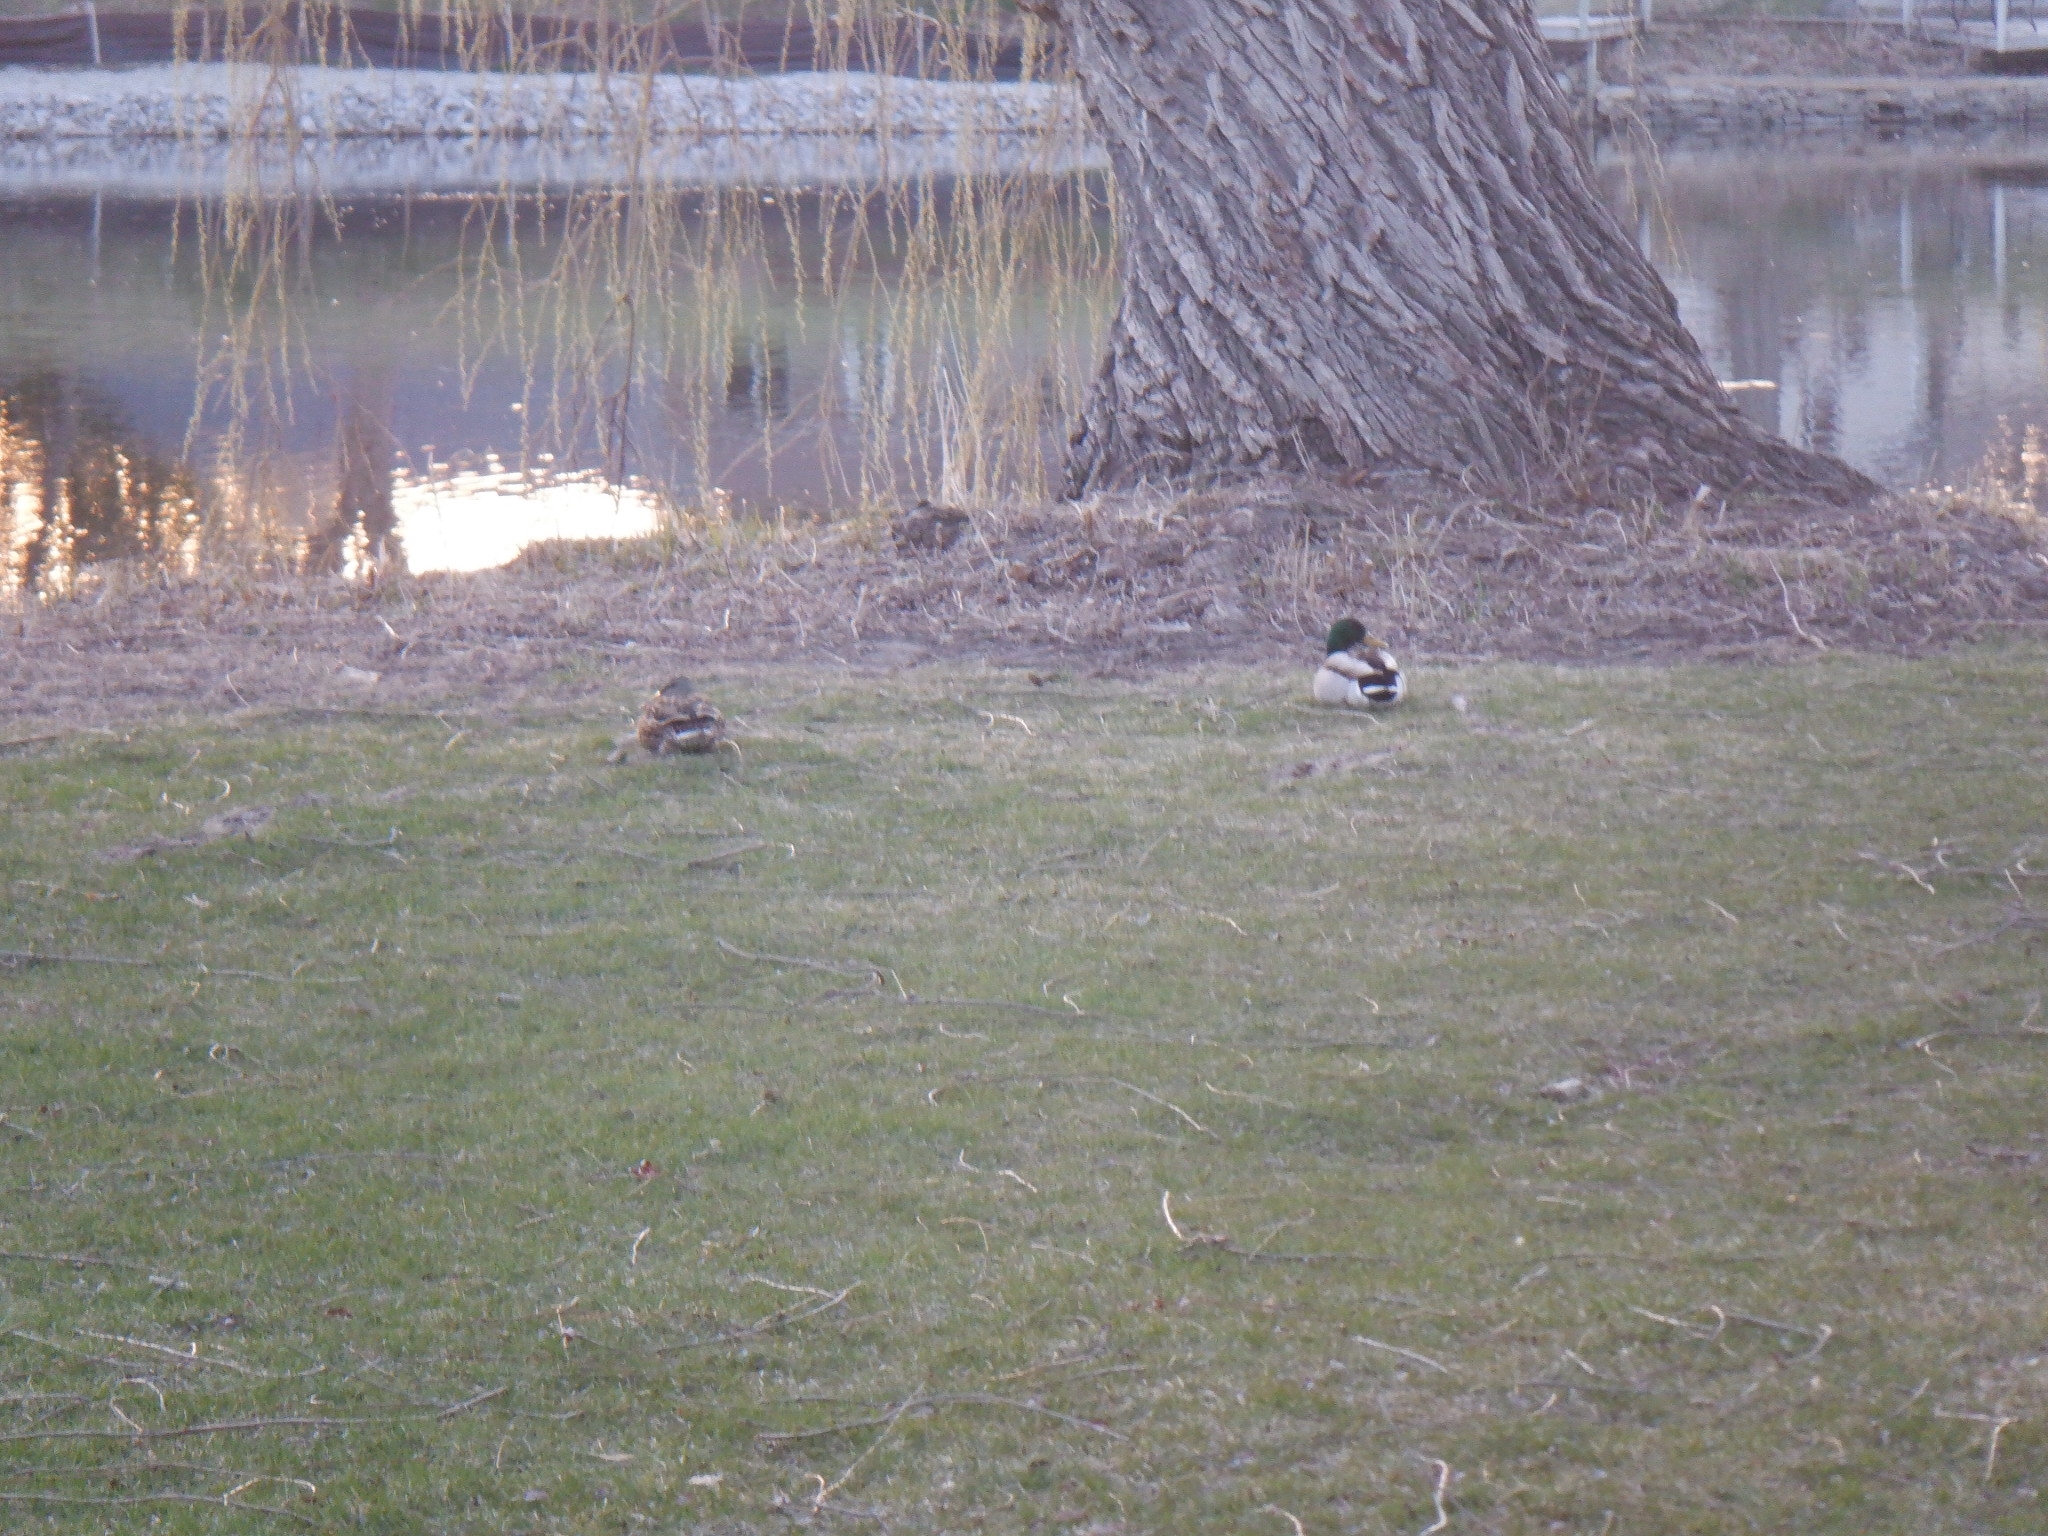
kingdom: Animalia
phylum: Chordata
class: Aves
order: Anseriformes
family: Anatidae
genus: Anas
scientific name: Anas platyrhynchos
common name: Mallard
